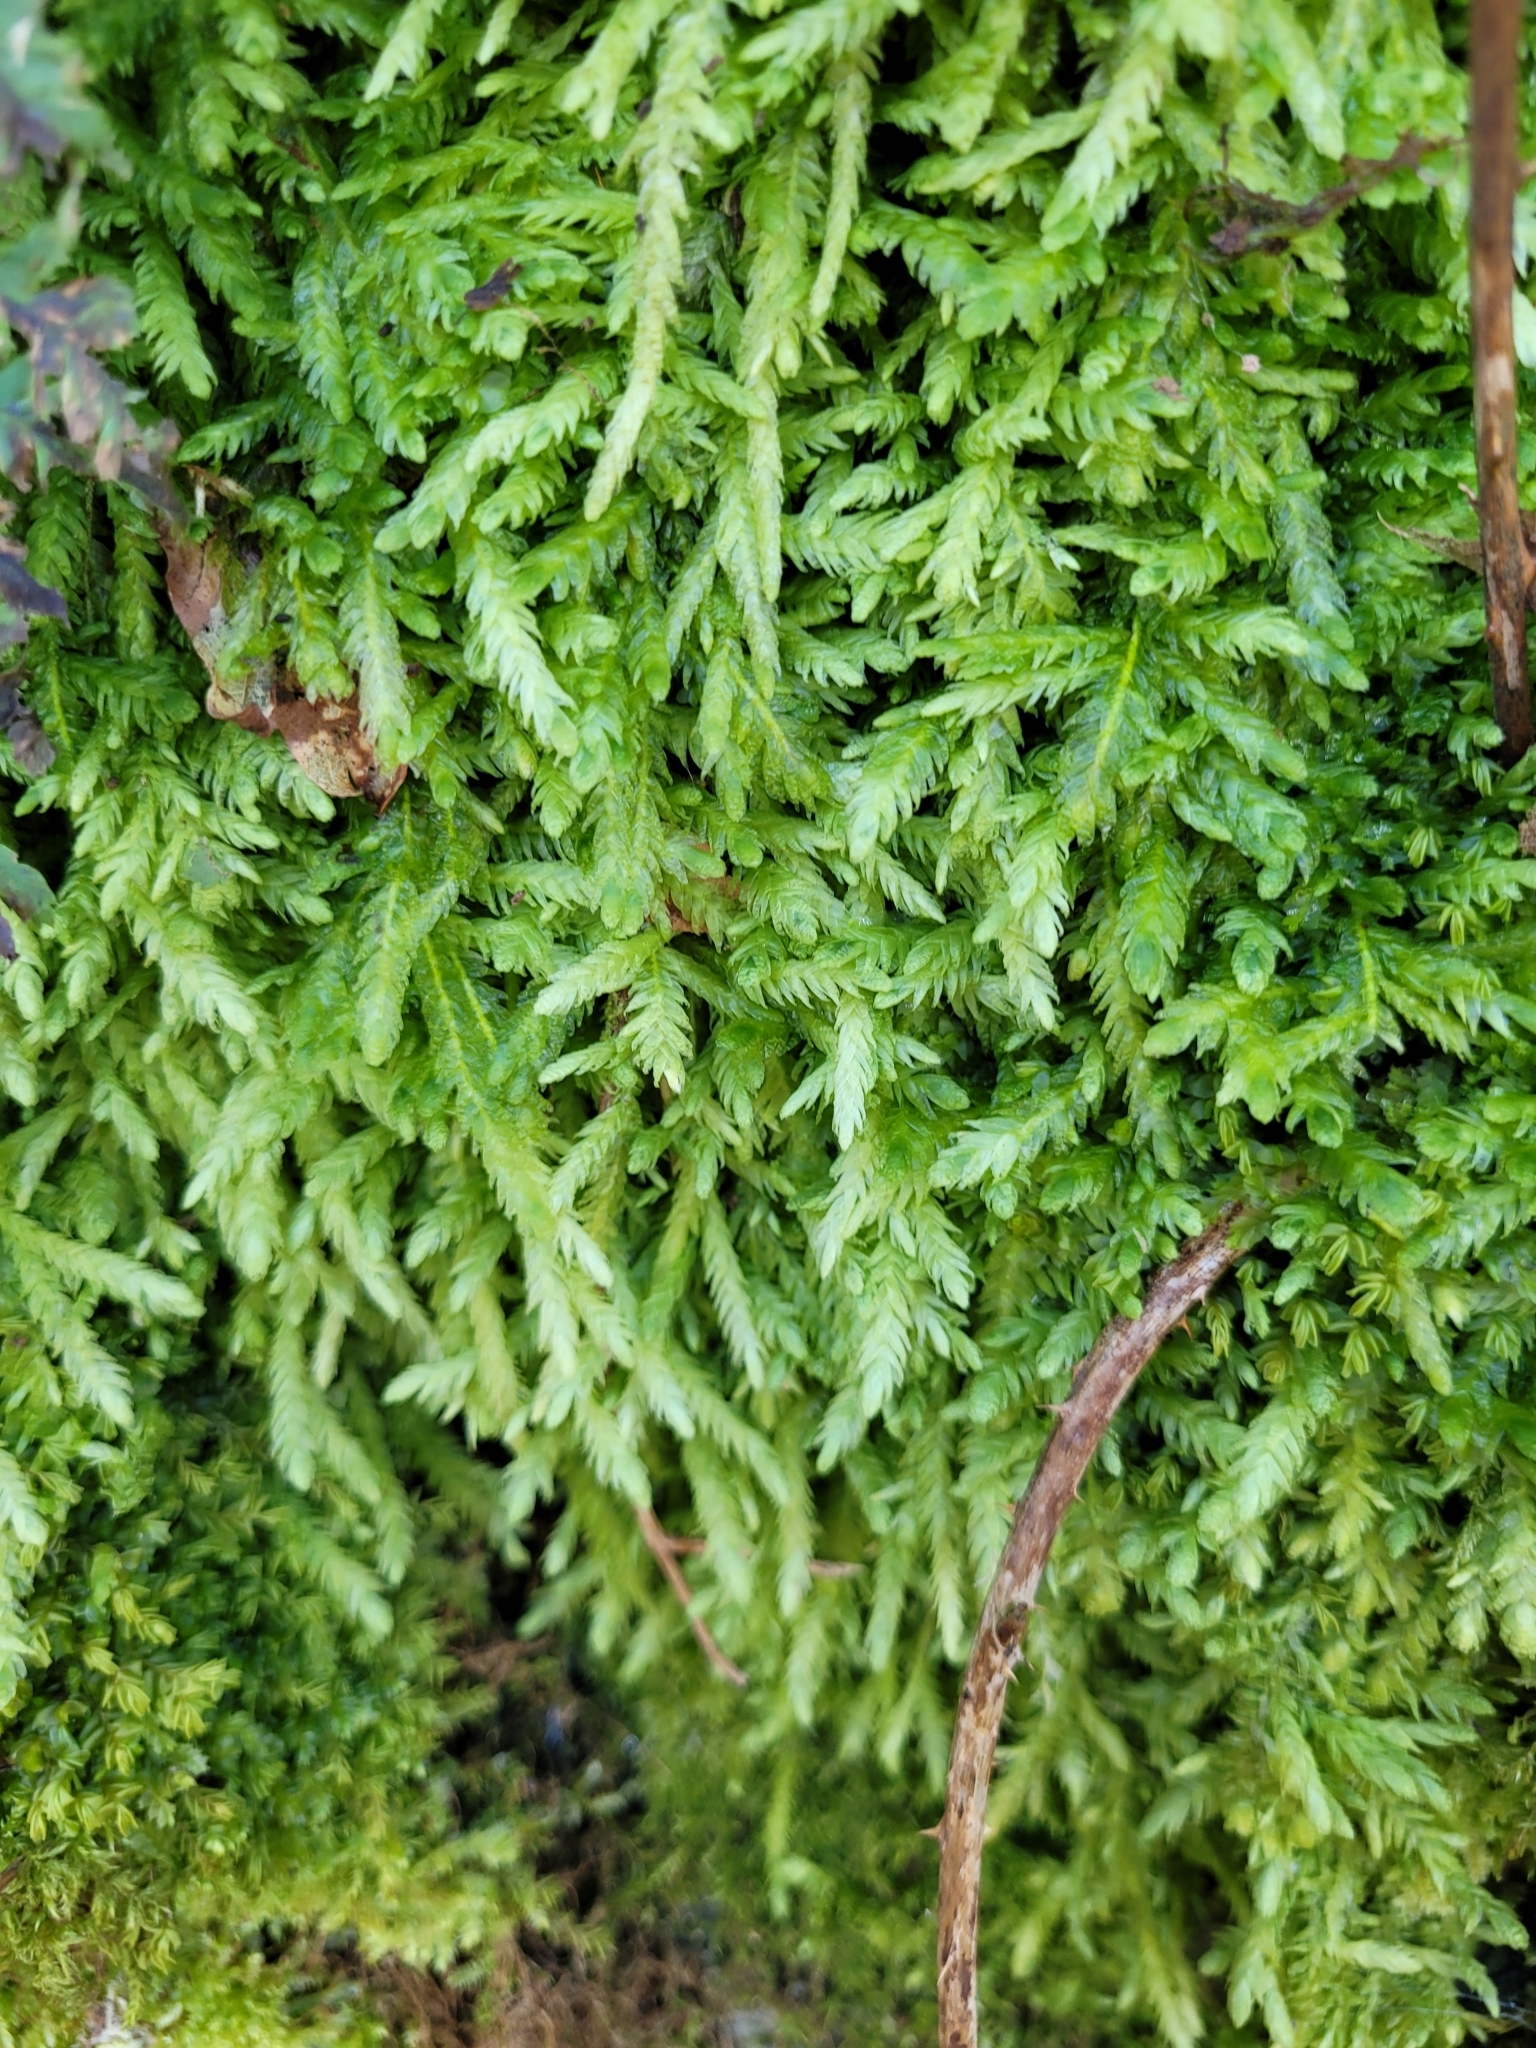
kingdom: Plantae
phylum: Bryophyta
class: Bryopsida
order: Hypnales
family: Plagiotheciaceae
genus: Plagiothecium
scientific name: Plagiothecium undulatum
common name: Waved silk-moss
